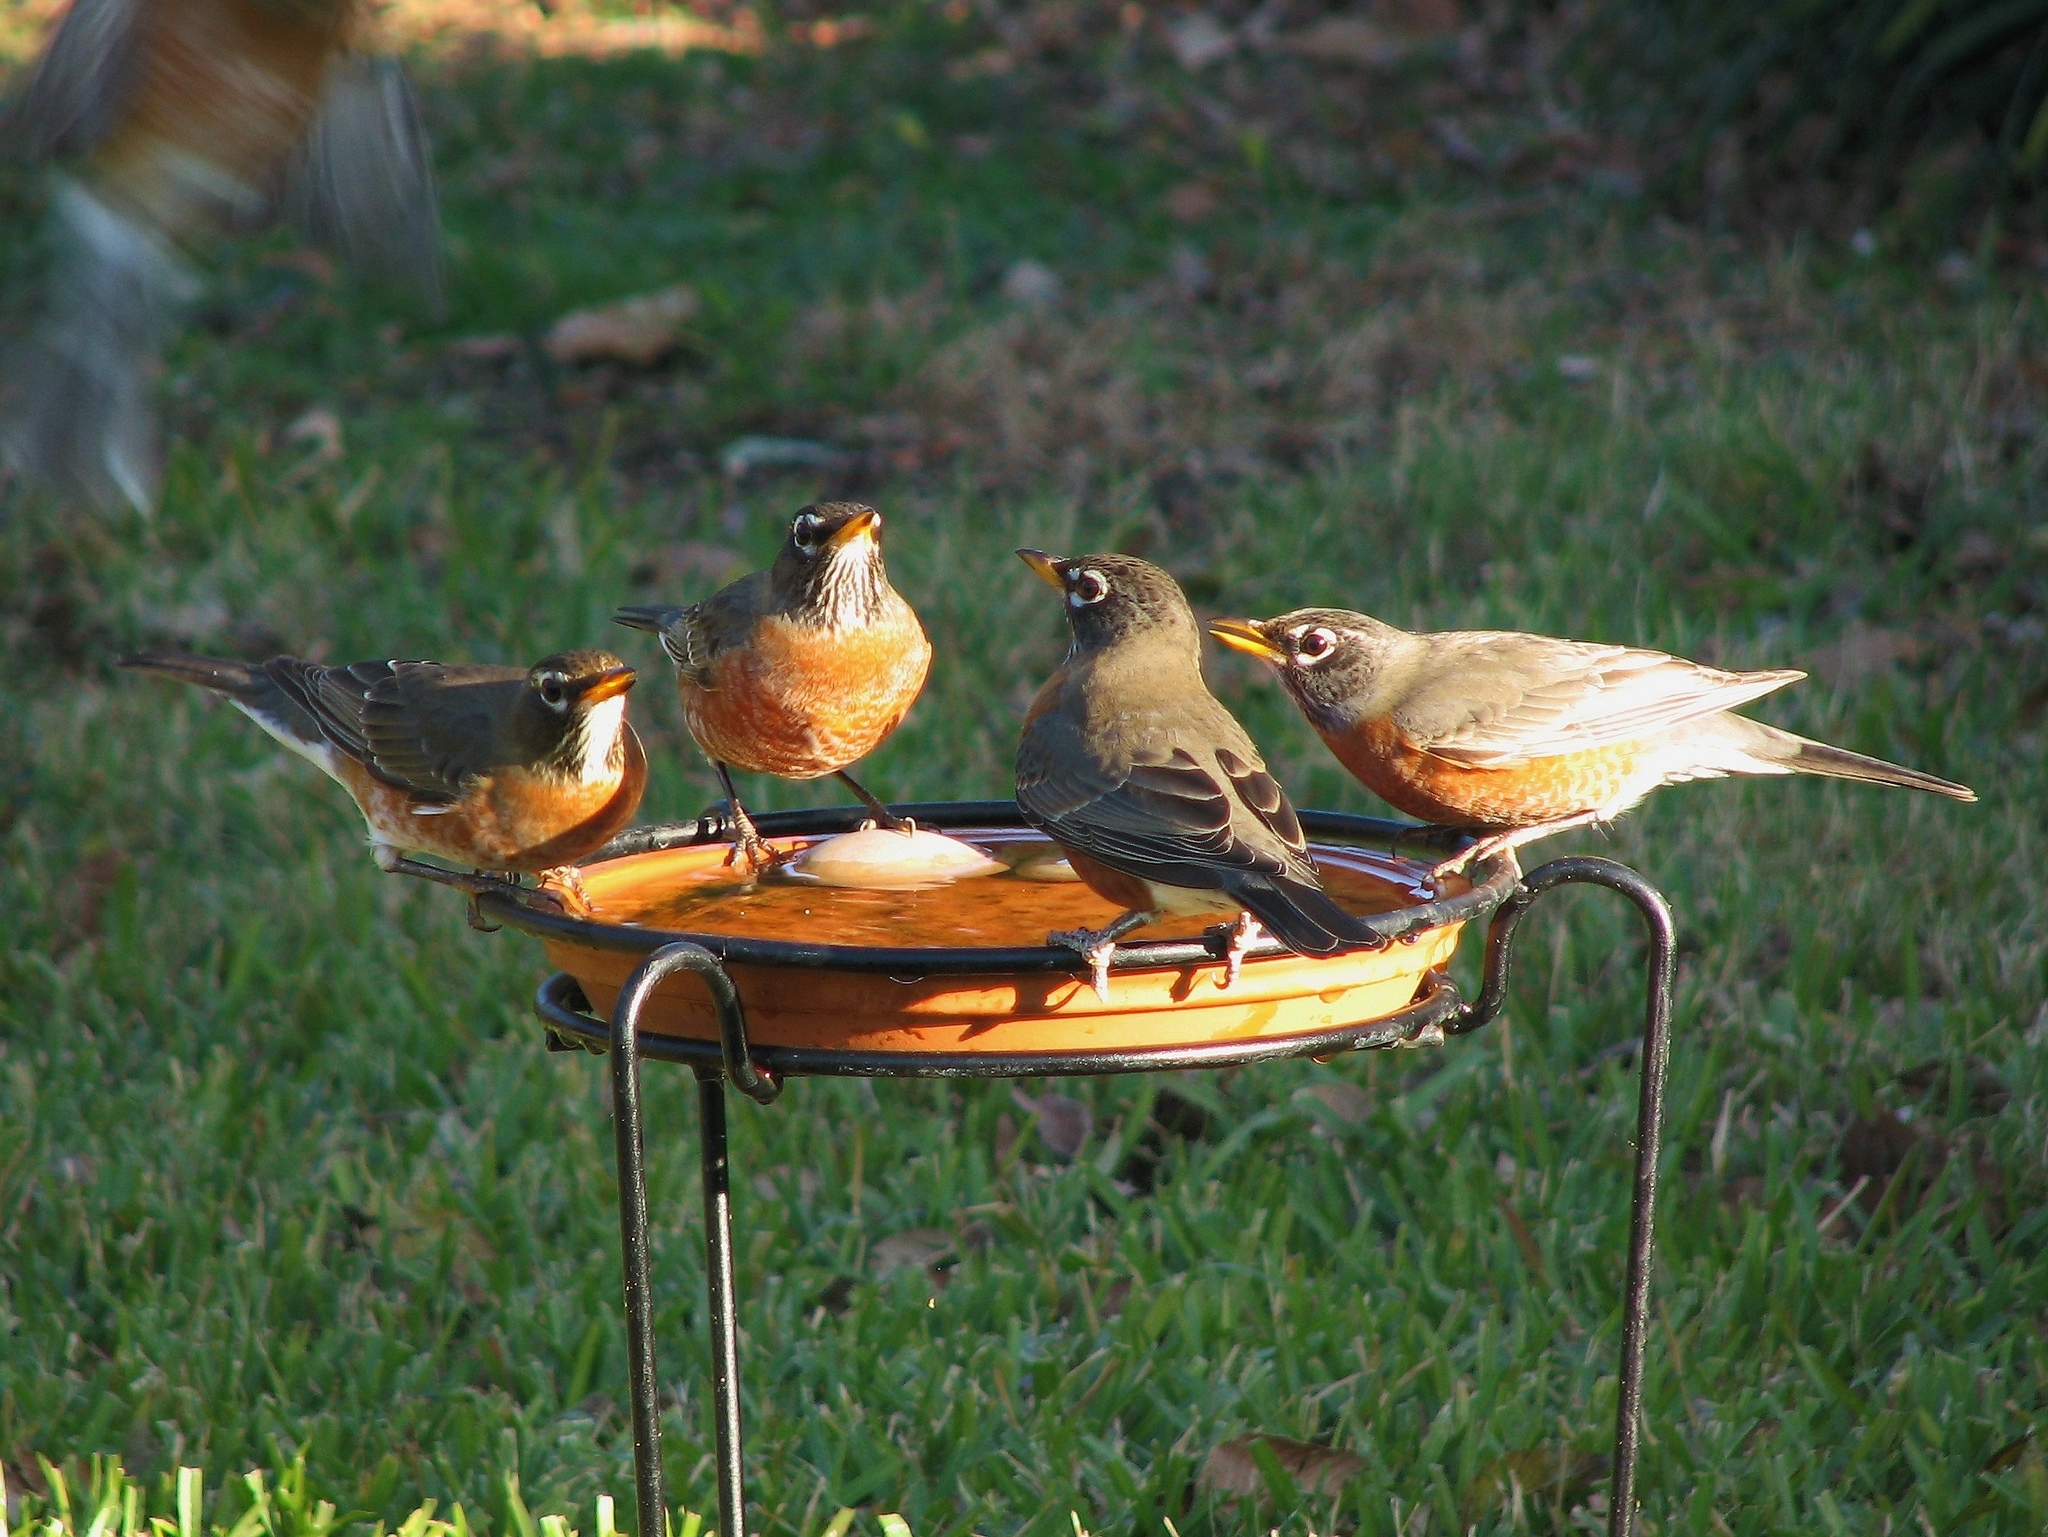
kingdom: Animalia
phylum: Chordata
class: Aves
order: Passeriformes
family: Turdidae
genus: Turdus
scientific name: Turdus migratorius
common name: American robin
